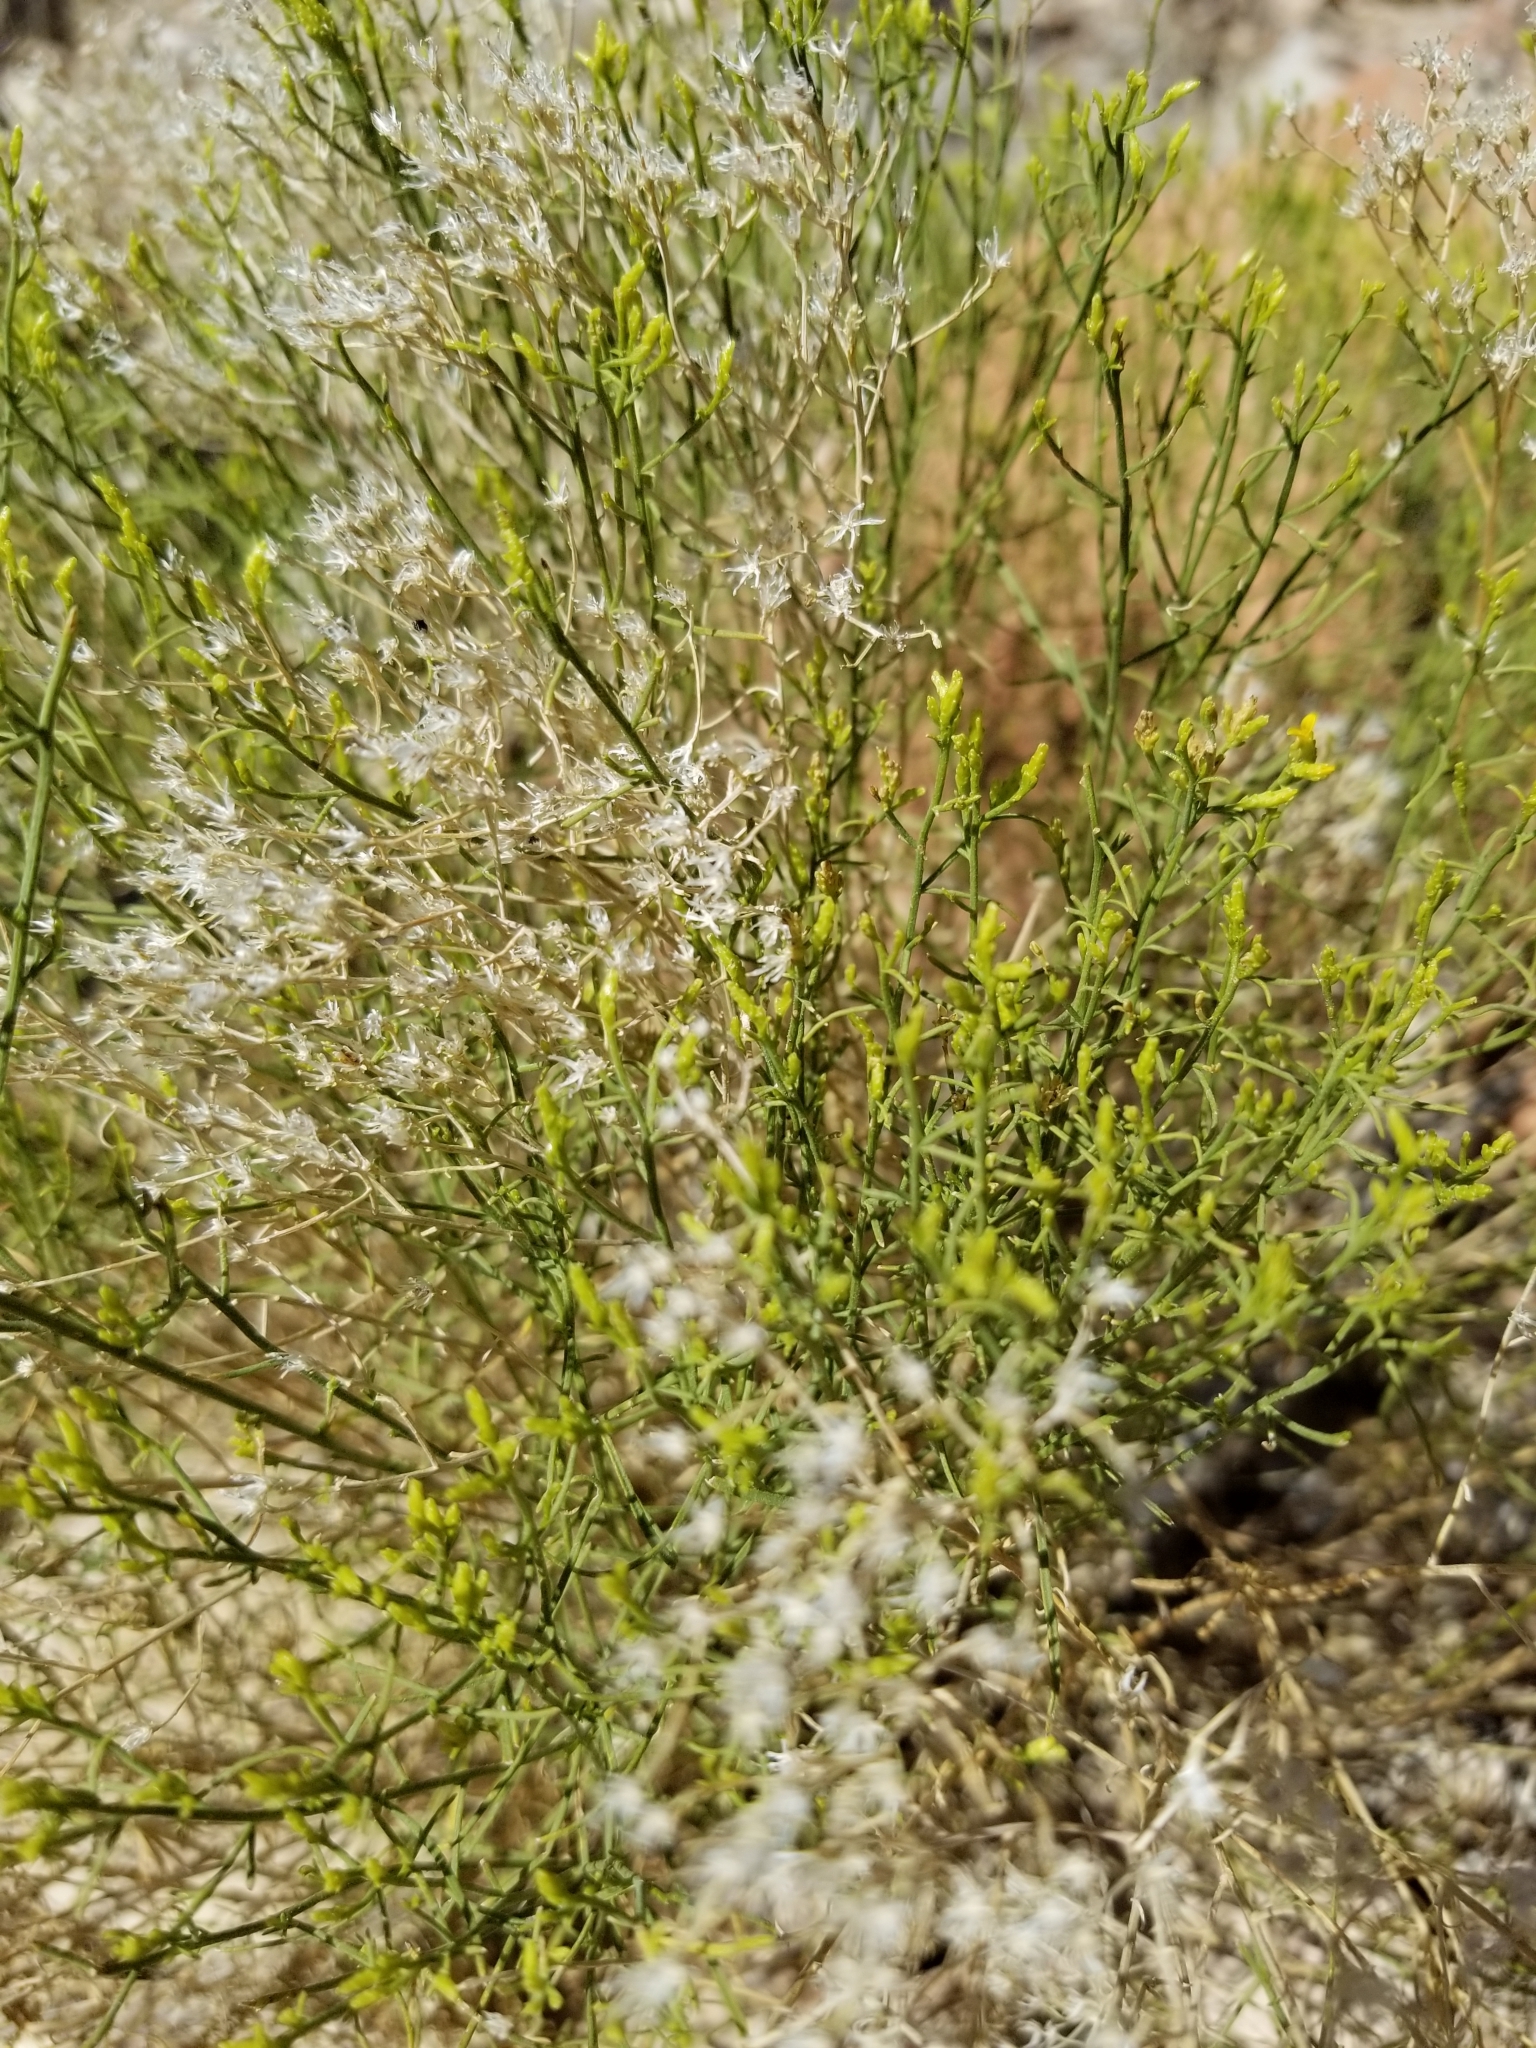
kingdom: Plantae
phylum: Tracheophyta
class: Magnoliopsida
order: Asterales
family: Asteraceae
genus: Gutierrezia
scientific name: Gutierrezia sarothrae
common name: Broom snakeweed
